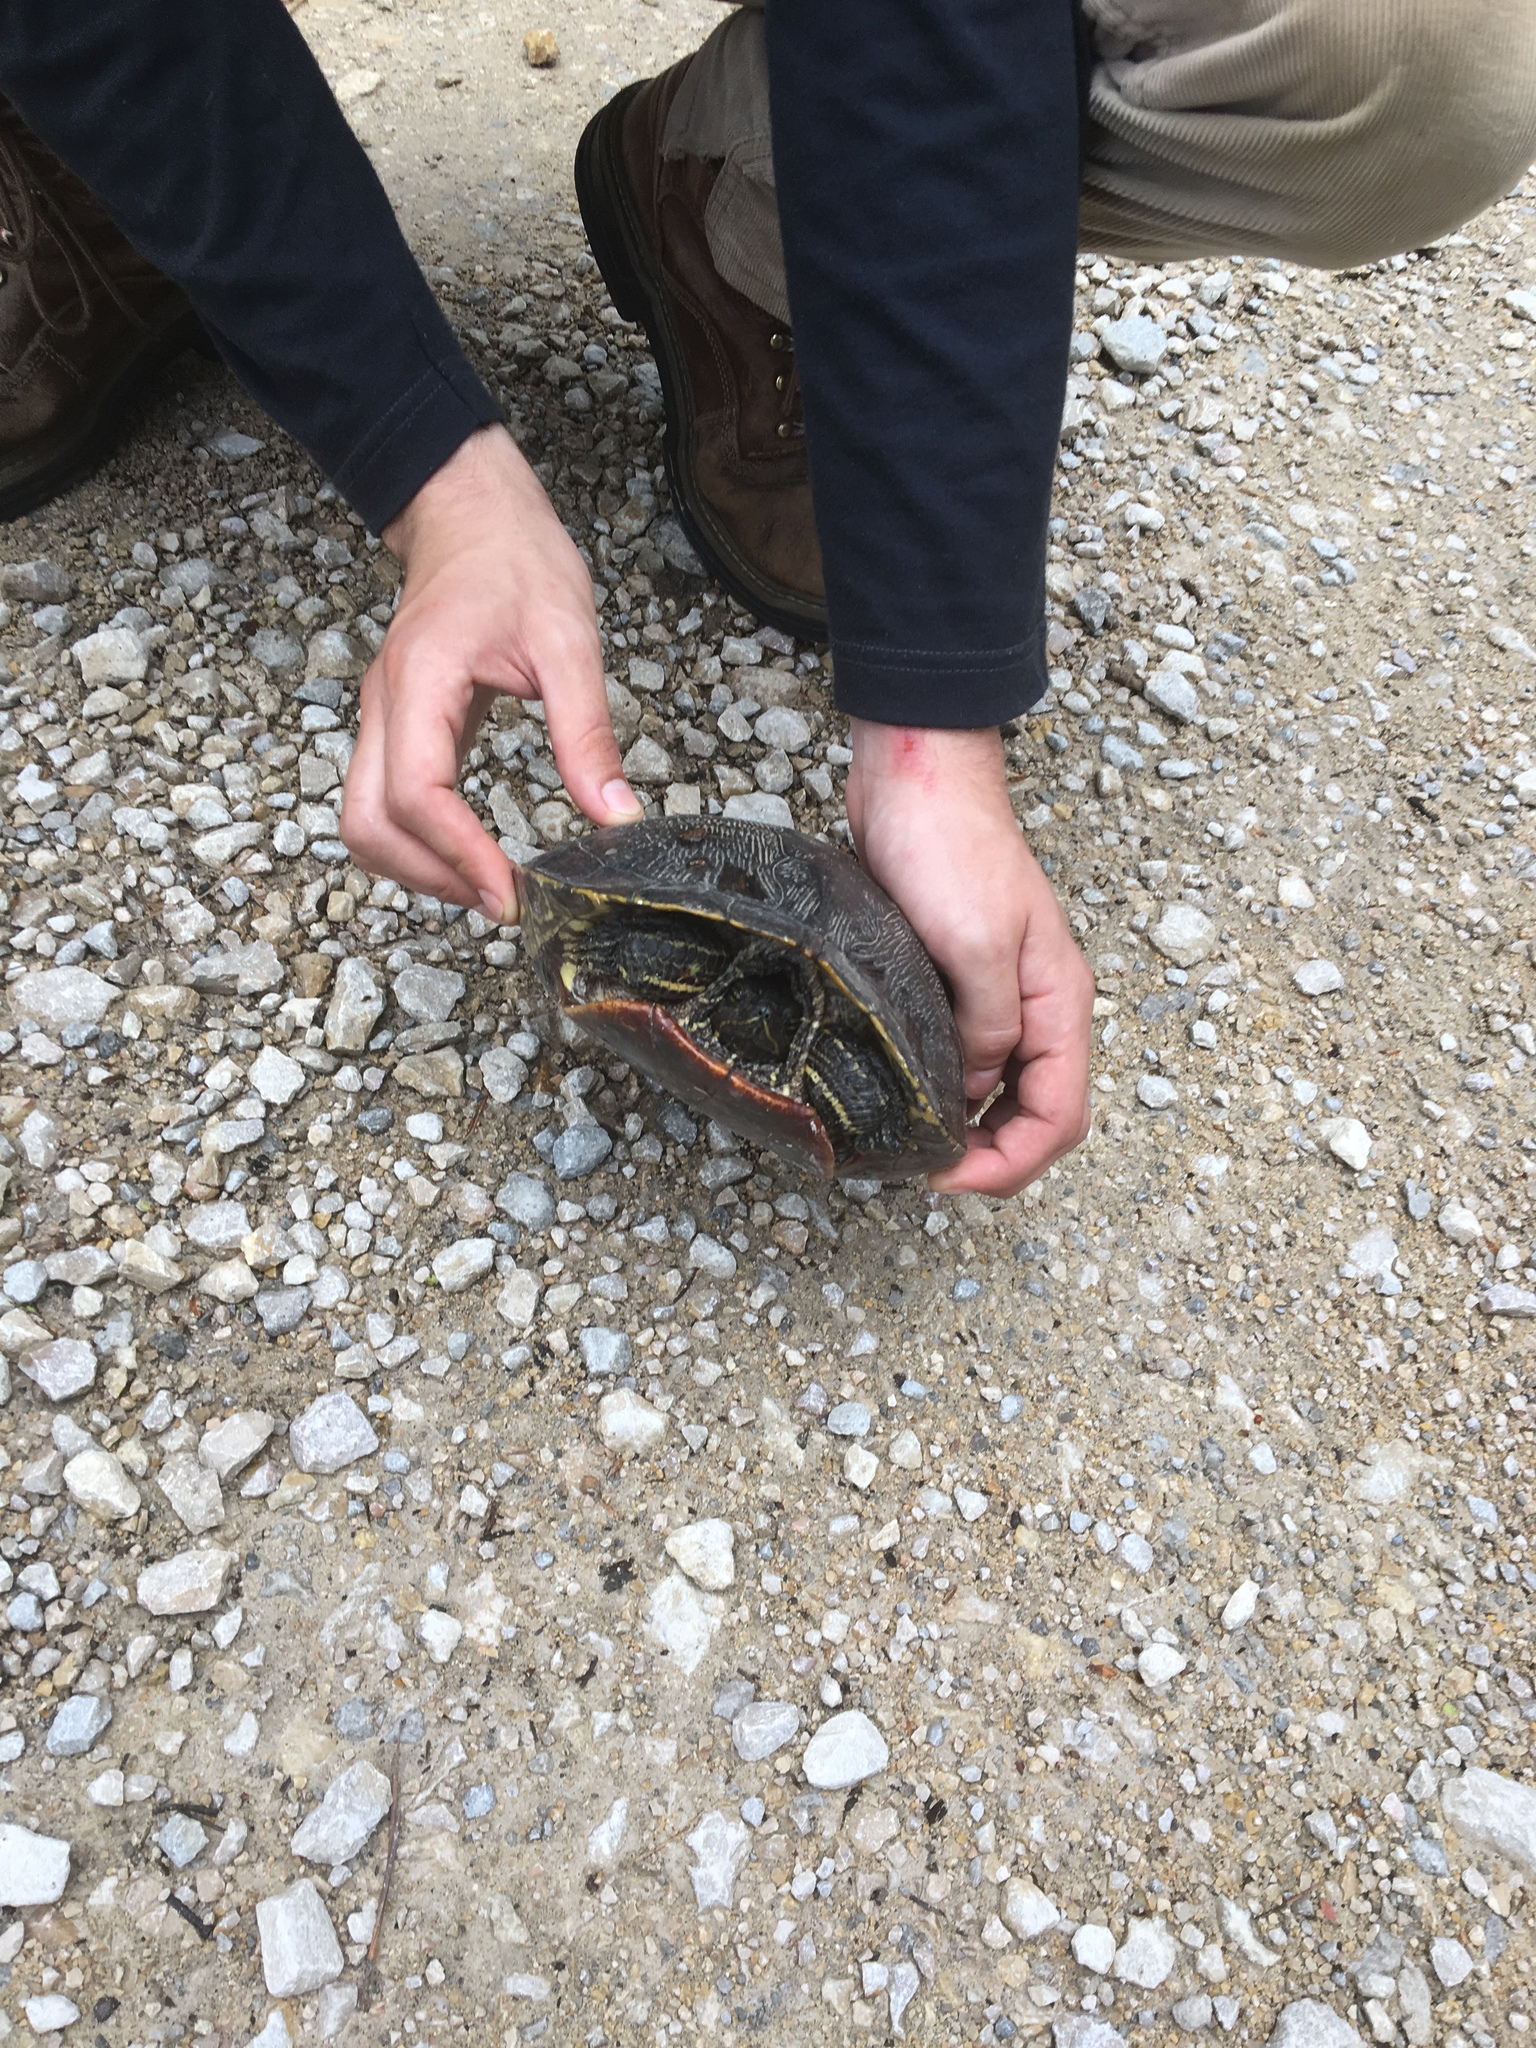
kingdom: Animalia
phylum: Chordata
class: Testudines
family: Emydidae
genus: Trachemys
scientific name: Trachemys scripta
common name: Slider
